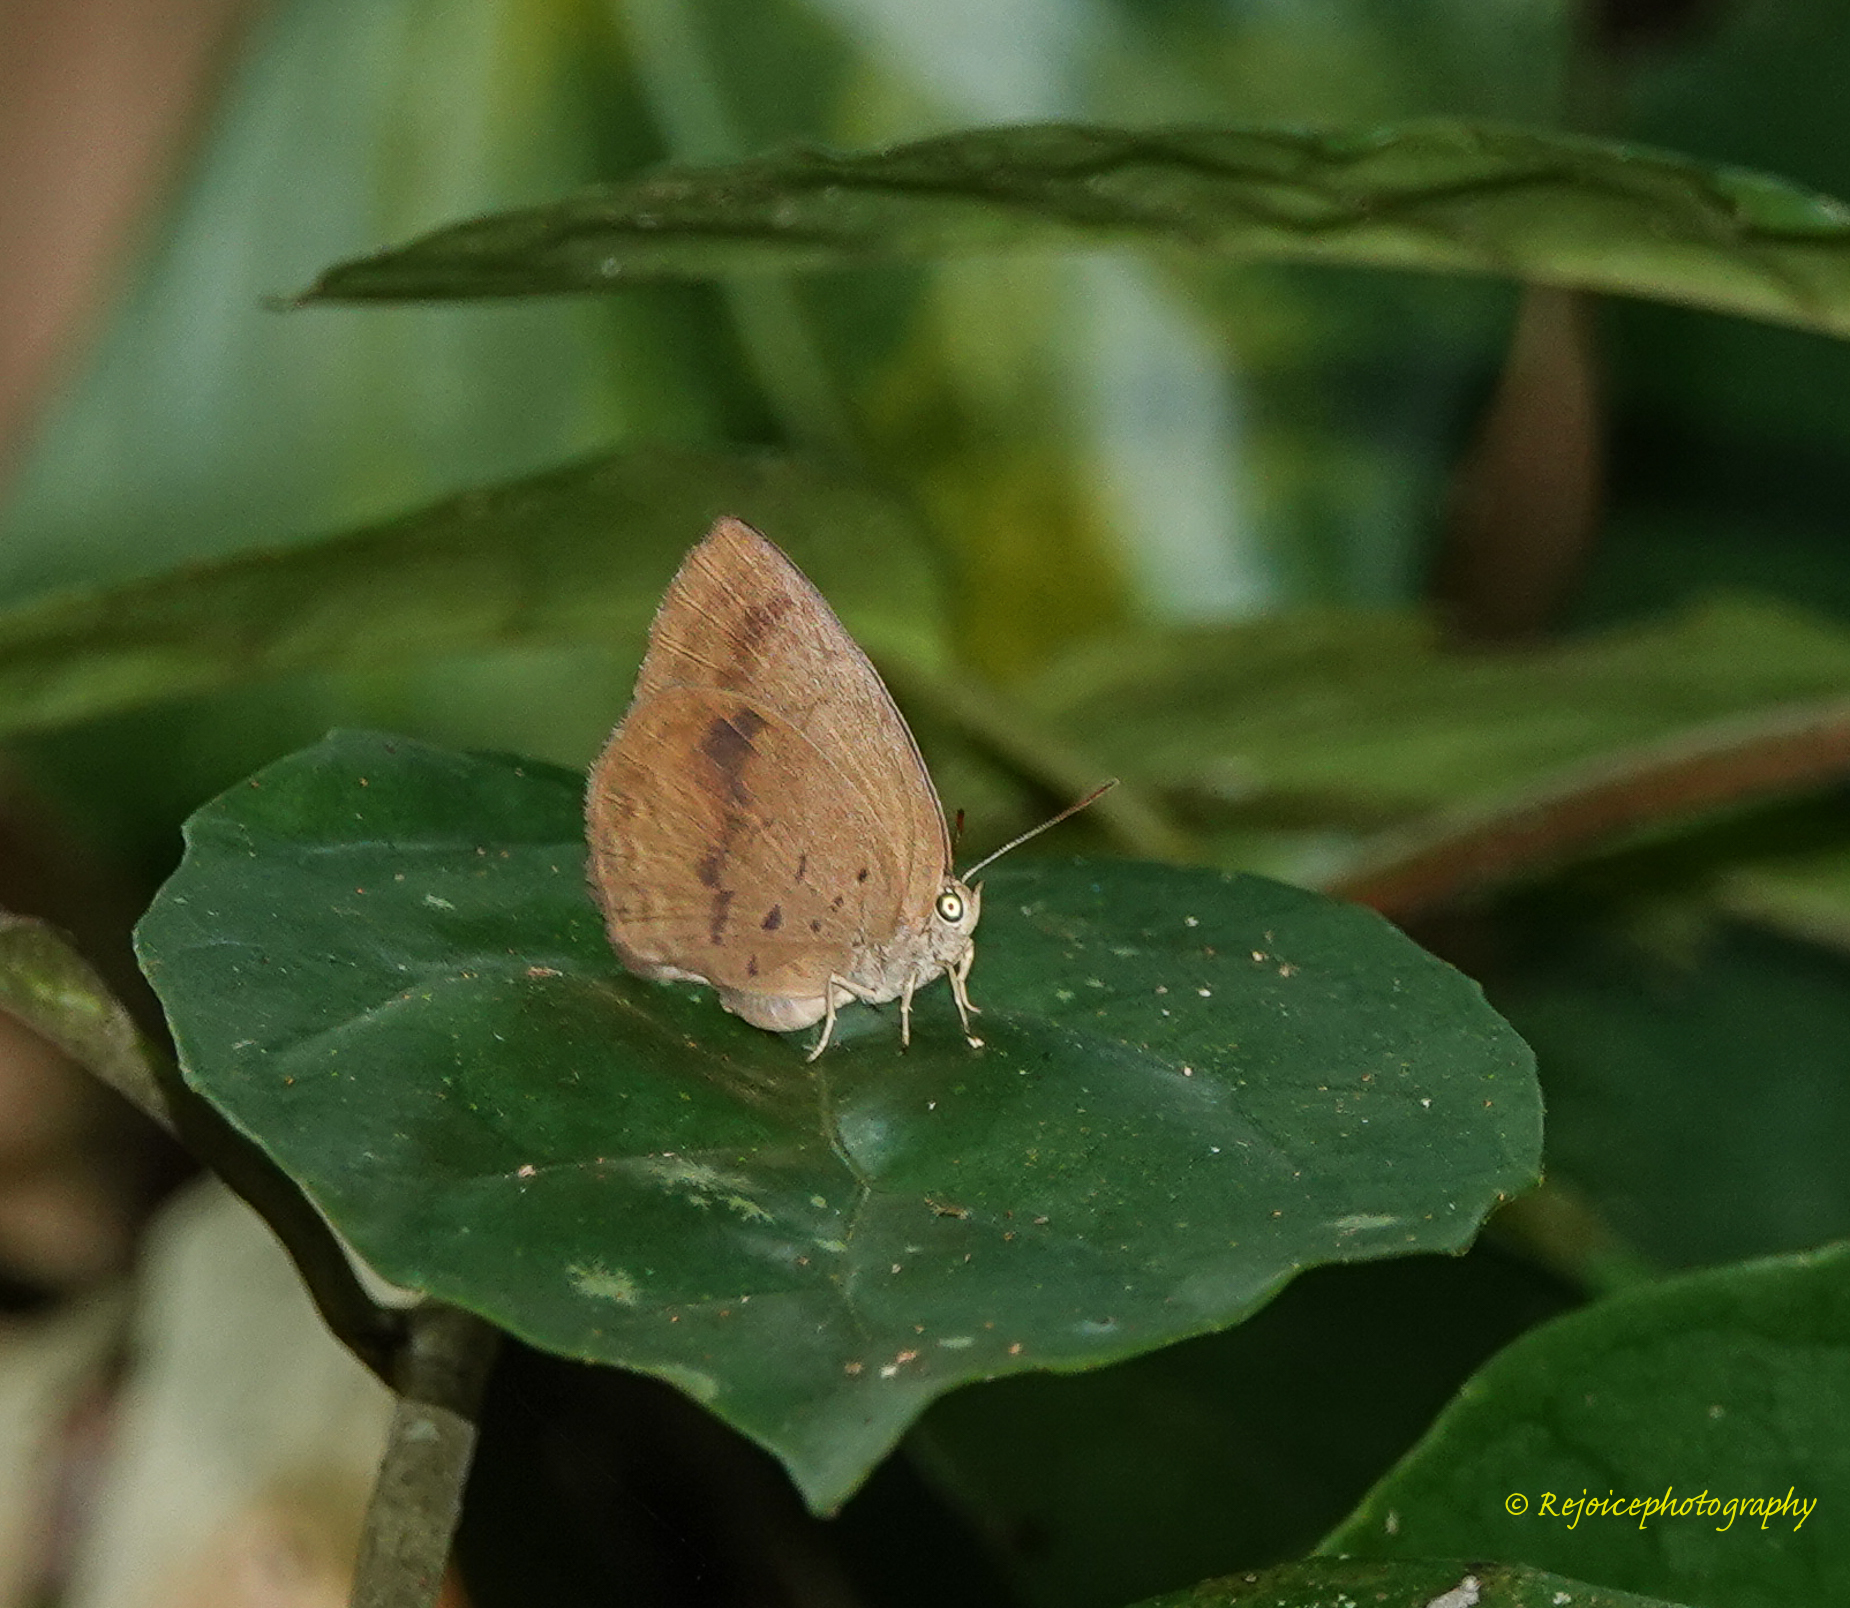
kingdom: Animalia
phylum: Arthropoda
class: Insecta
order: Lepidoptera
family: Lycaenidae
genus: Arhopala
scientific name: Arhopala fulla
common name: Spotless oakblue
